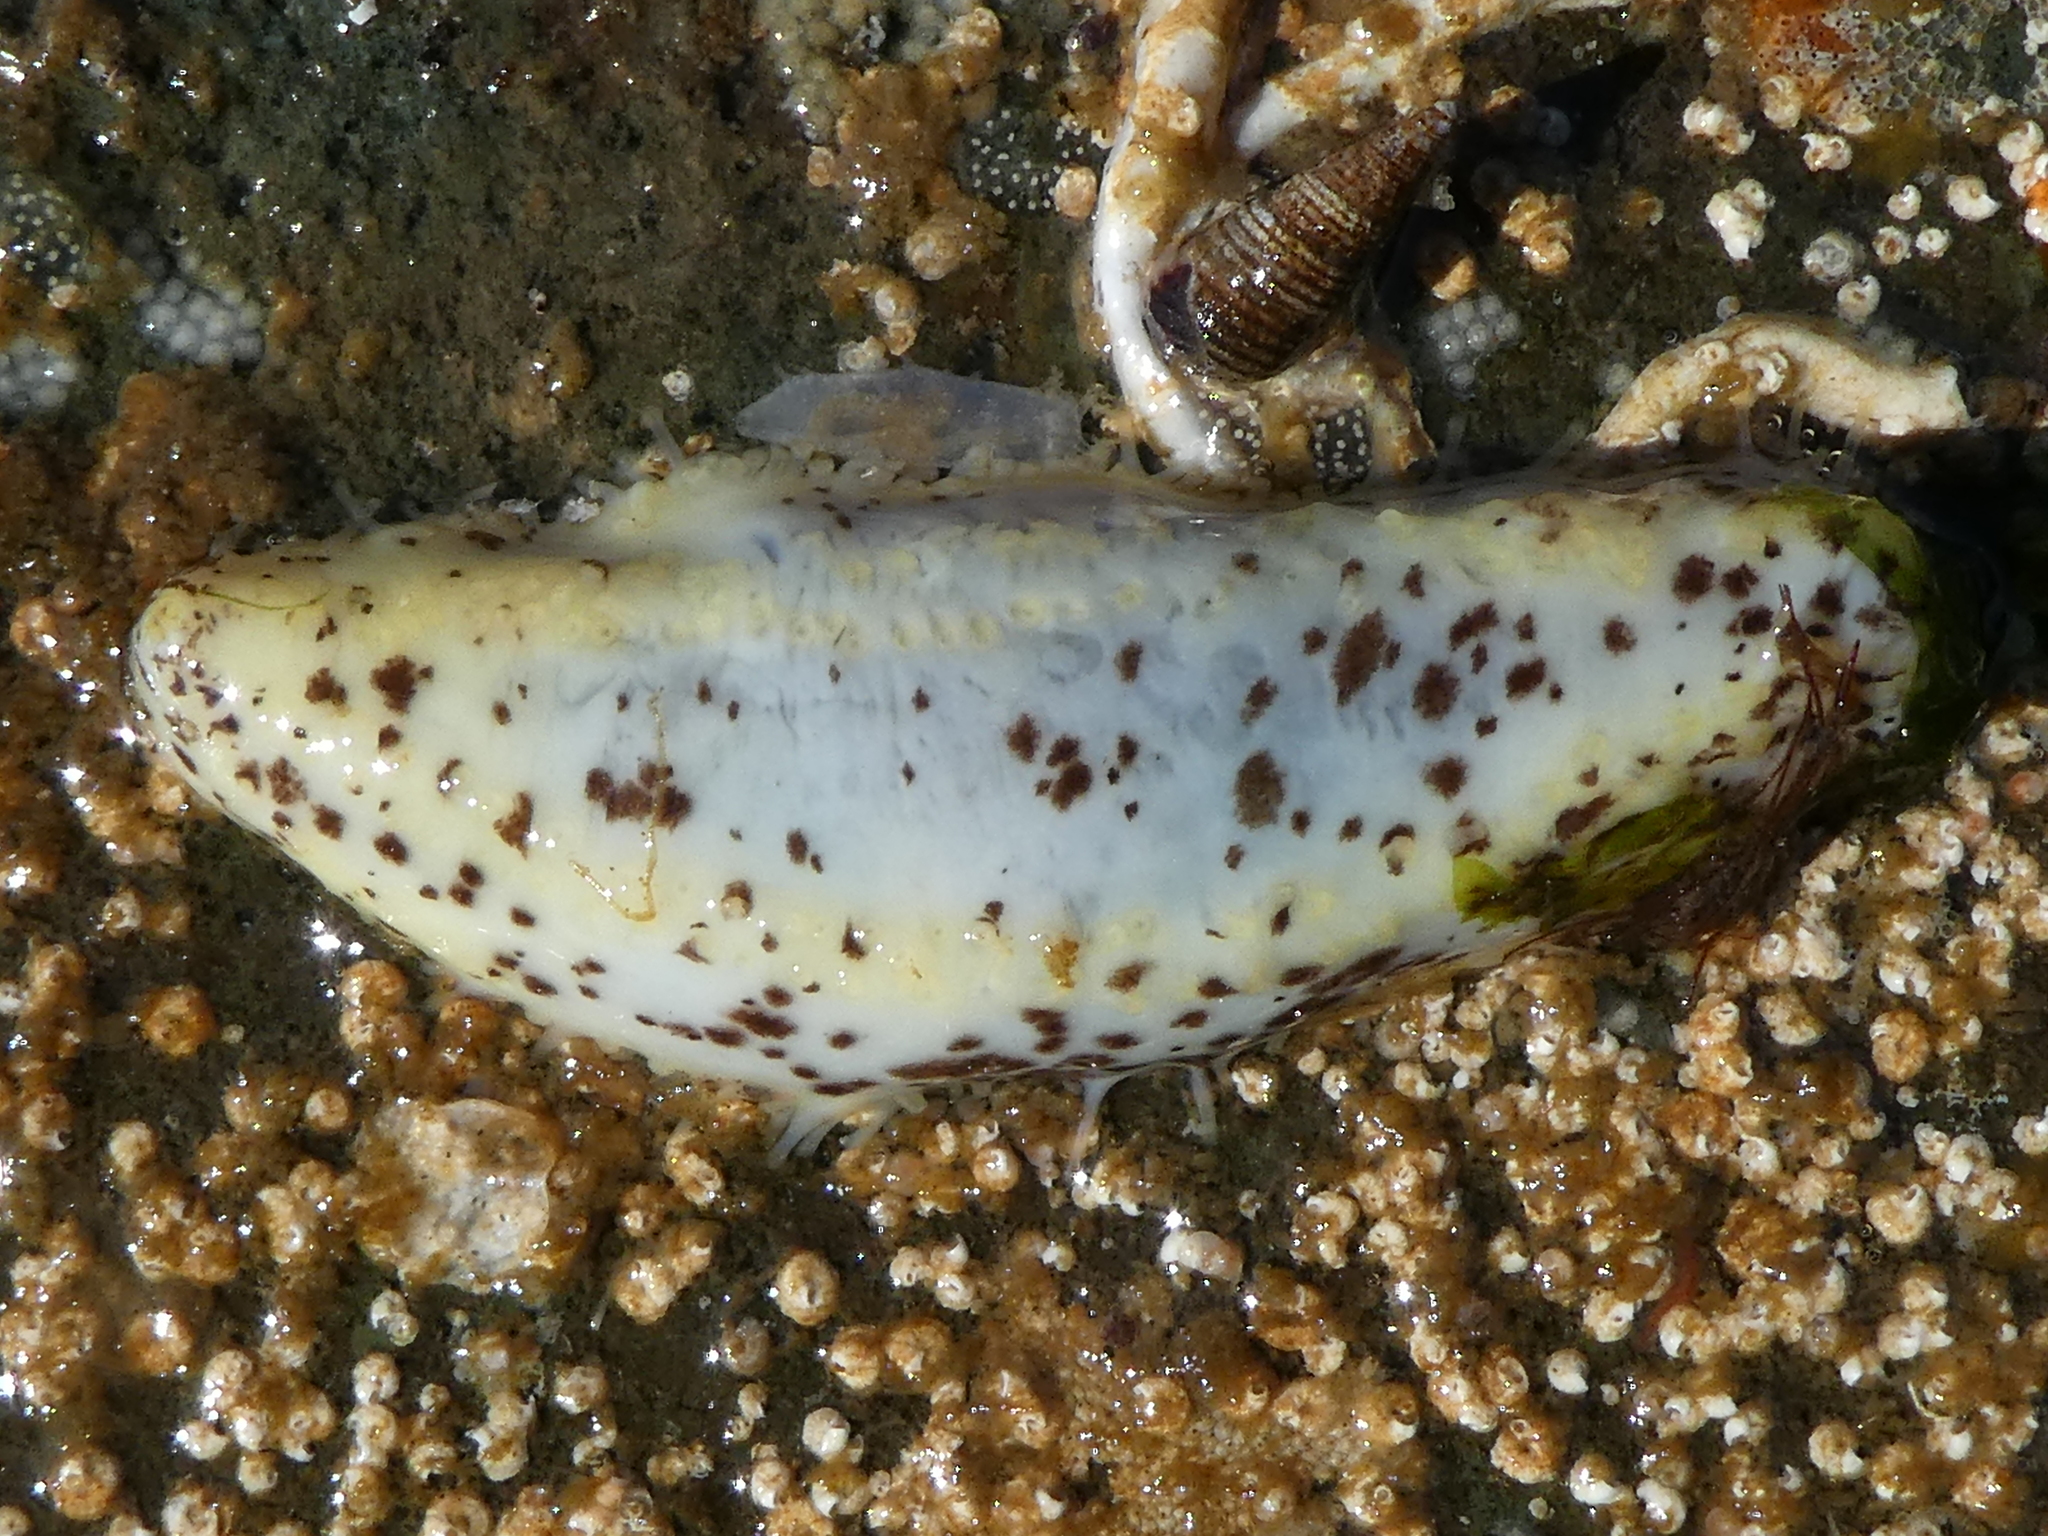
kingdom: Animalia
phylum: Echinodermata
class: Holothuroidea
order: Dendrochirotida
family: Cucumariidae
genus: Cucumaria
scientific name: Cucumaria piperata
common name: Peppered sea cucumber
